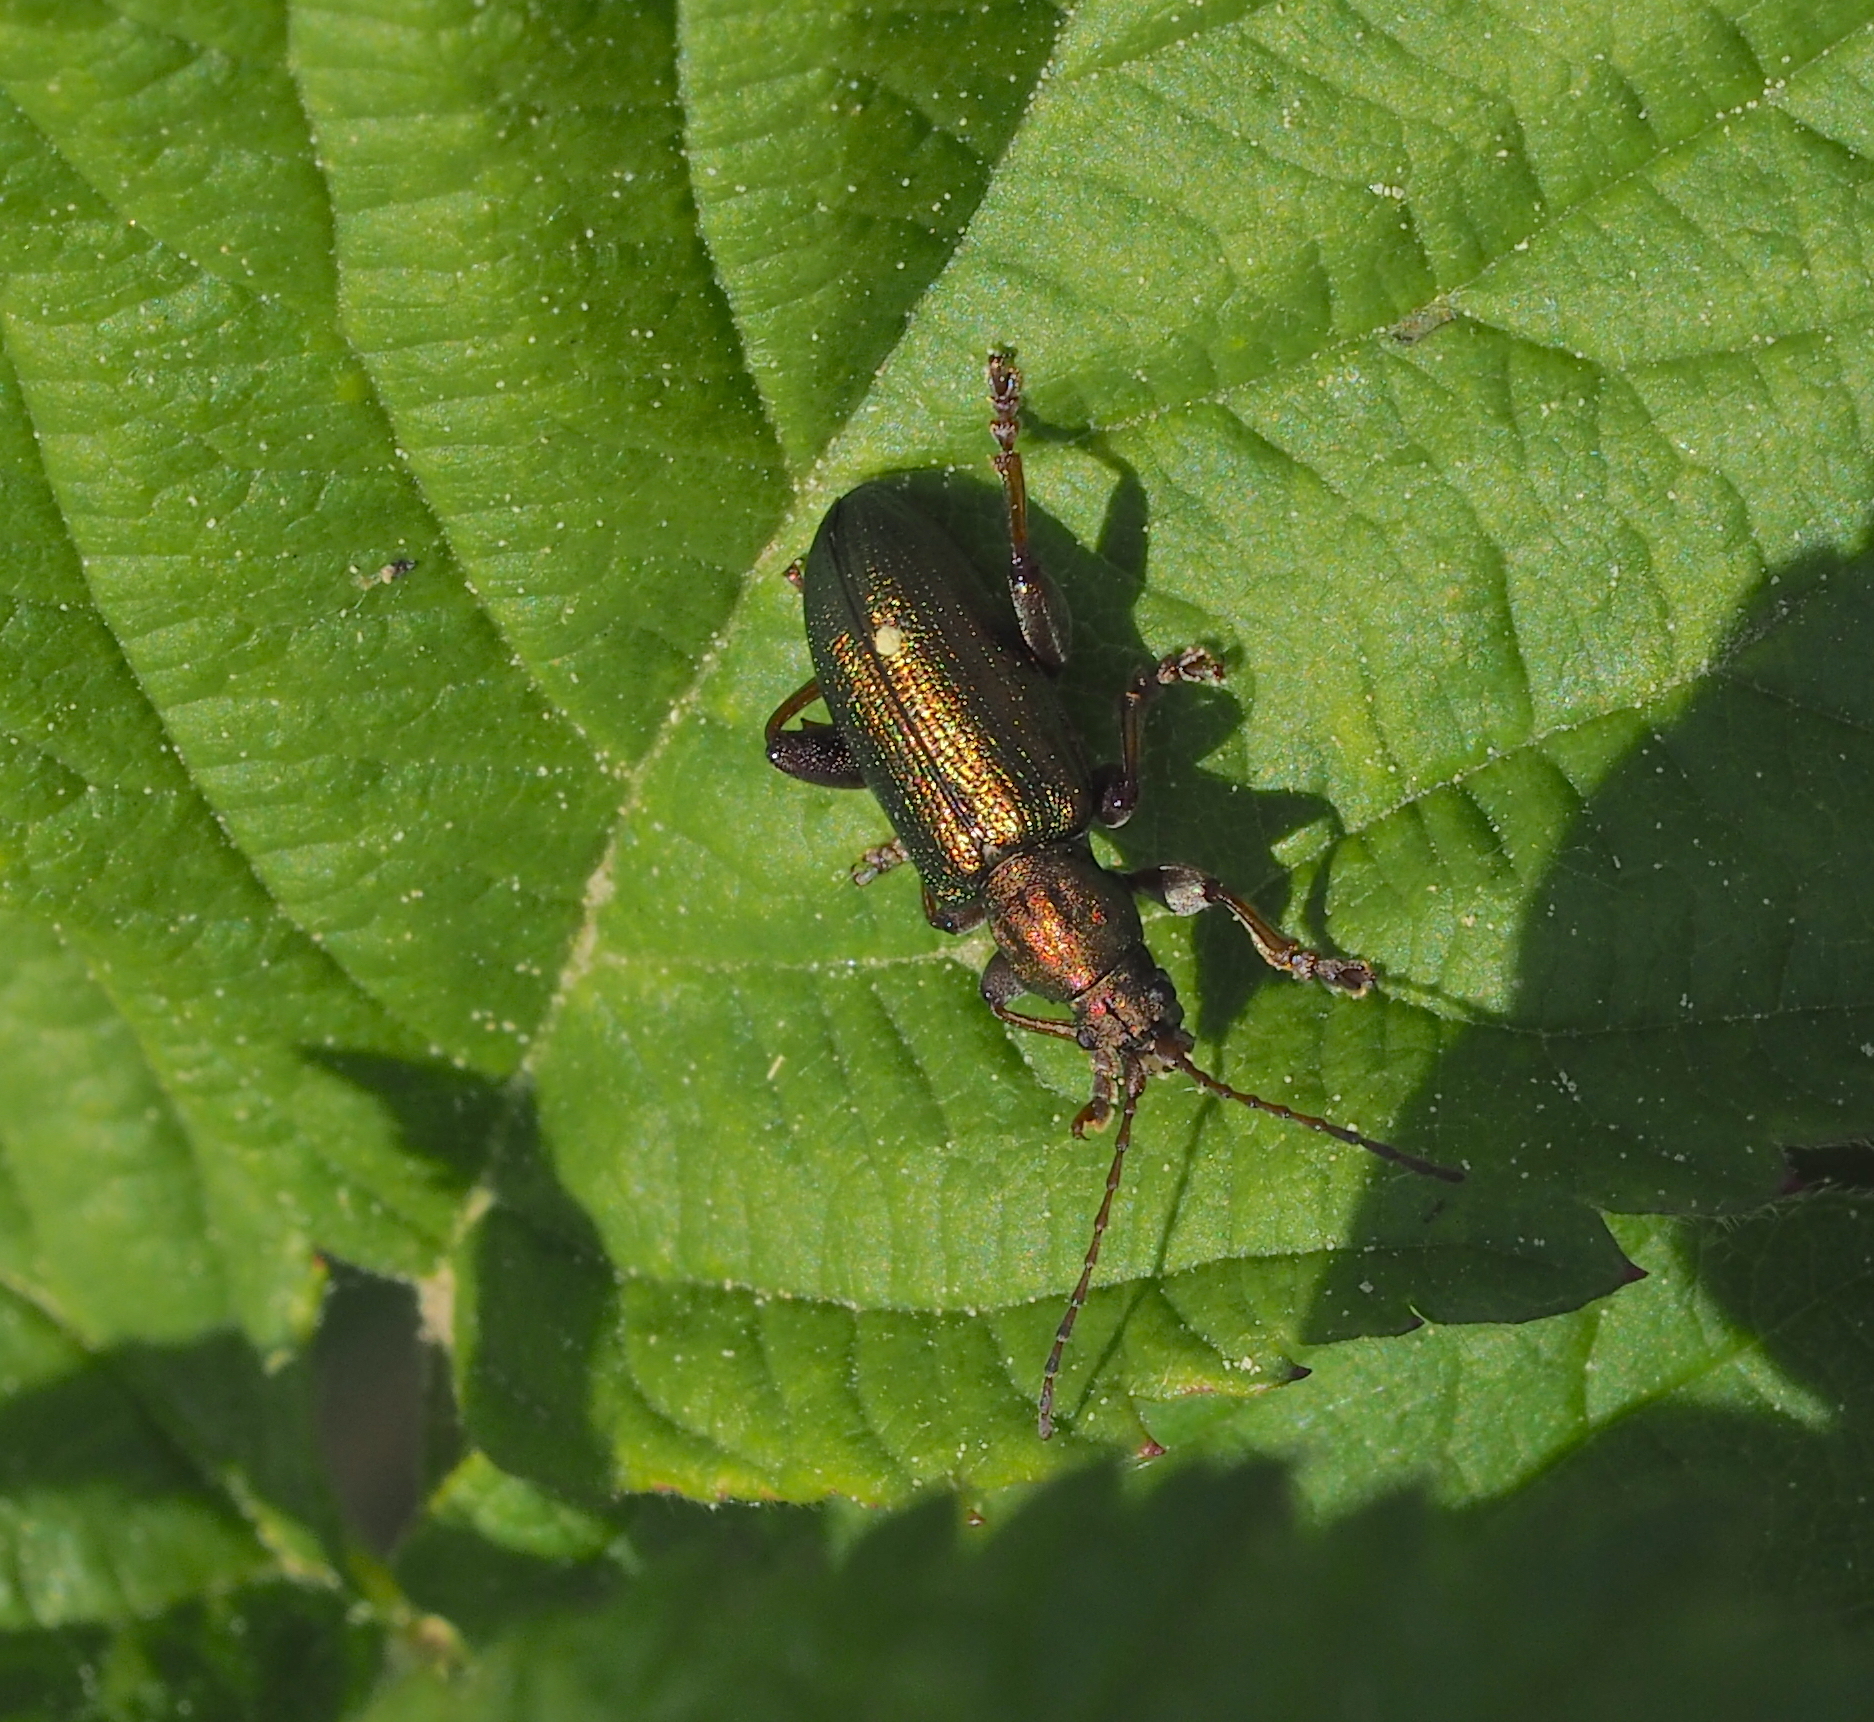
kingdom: Animalia
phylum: Arthropoda
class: Insecta
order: Coleoptera
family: Chrysomelidae
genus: Plateumaris
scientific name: Plateumaris consimilis
